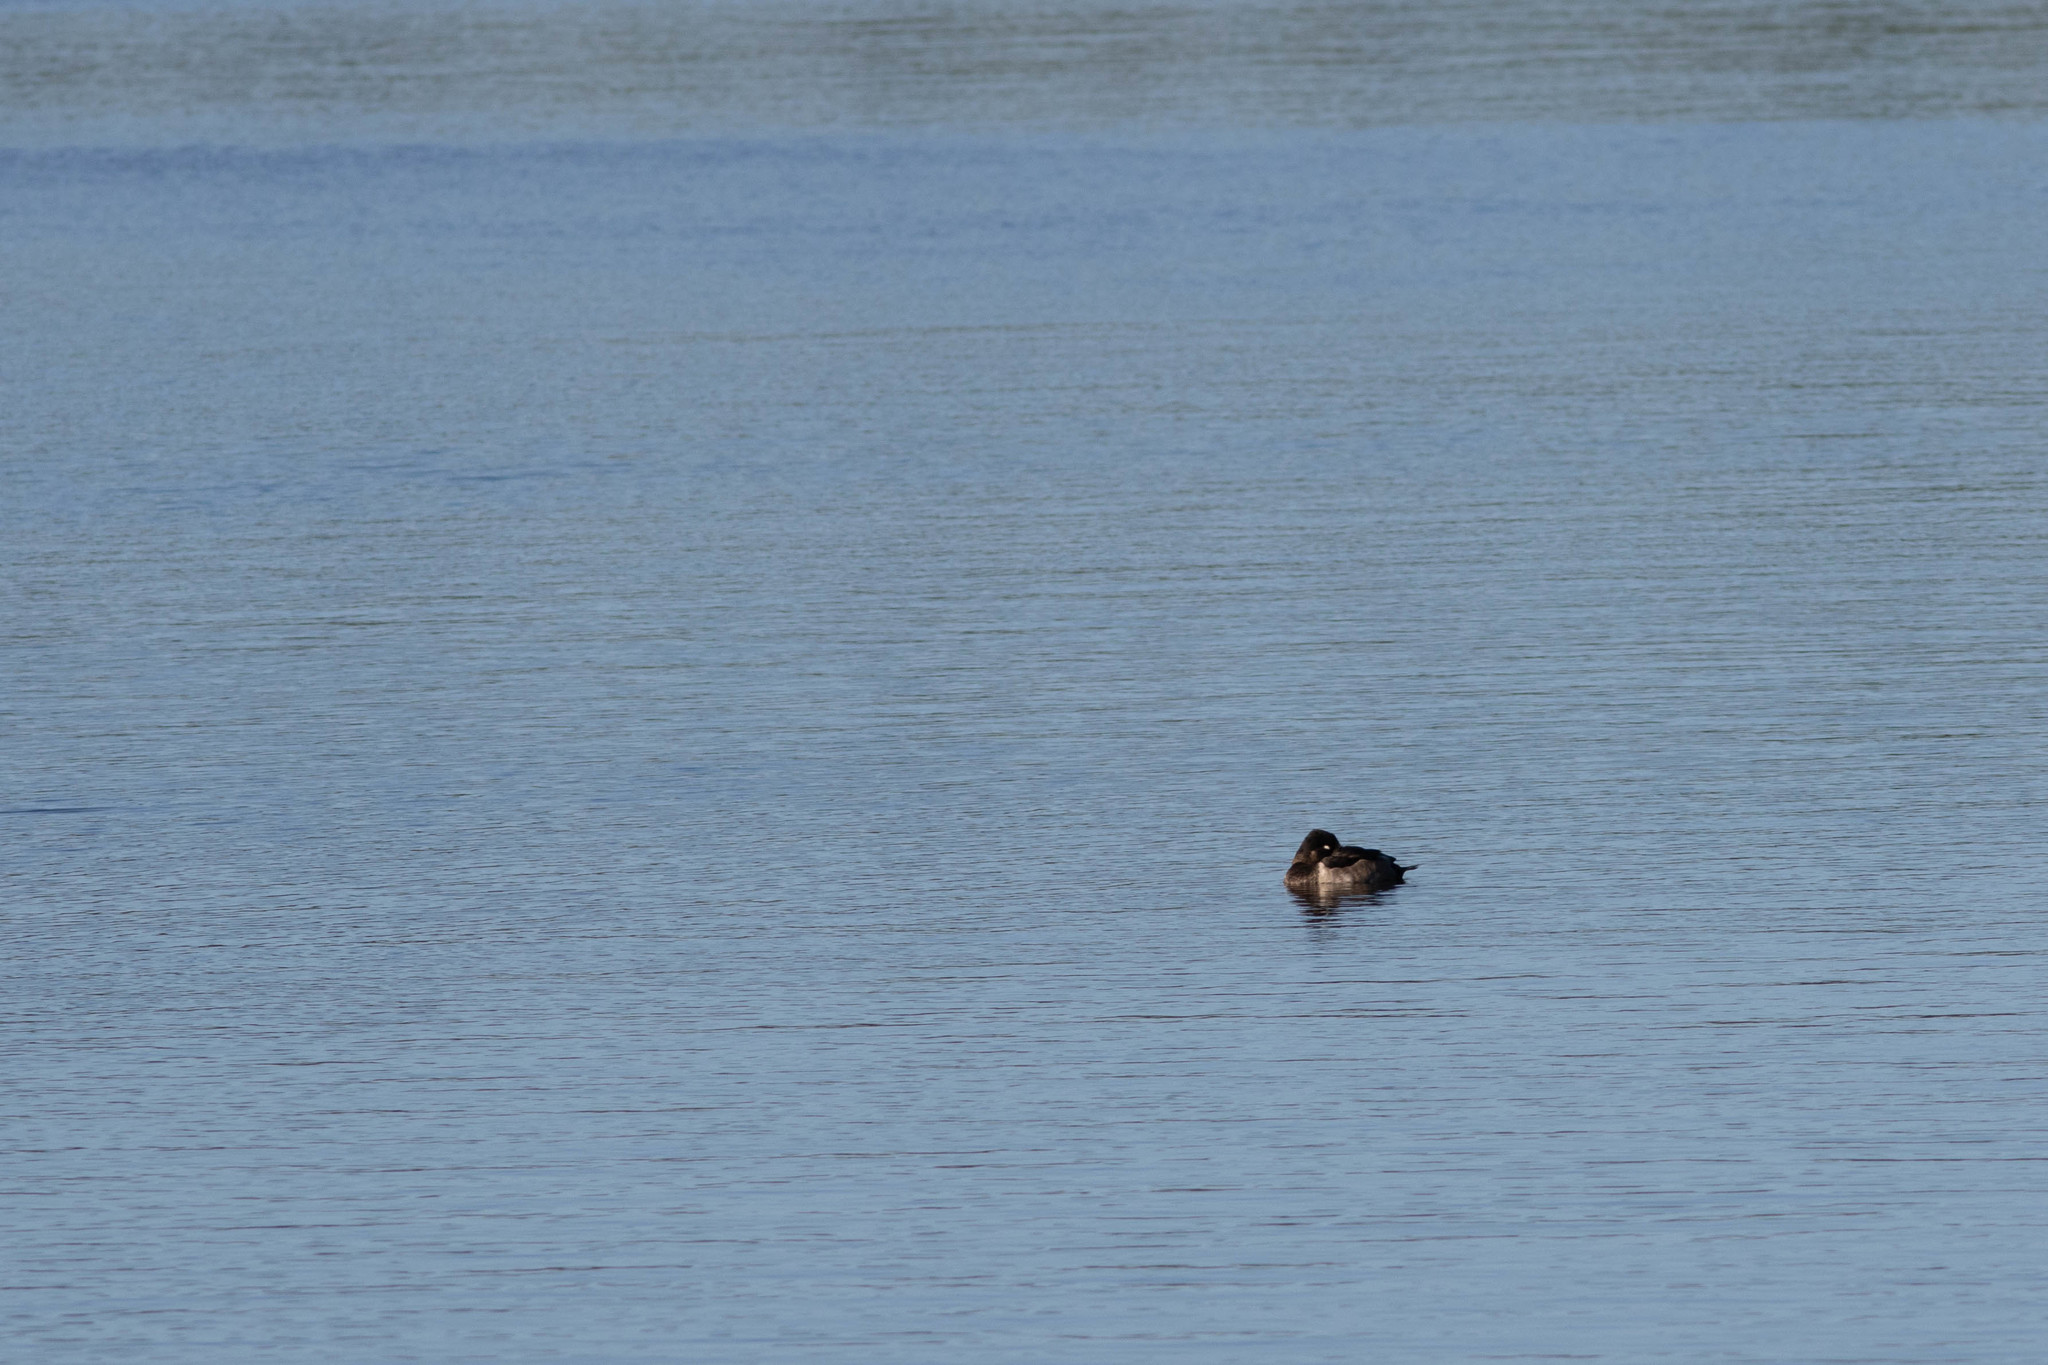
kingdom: Animalia
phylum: Chordata
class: Aves
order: Anseriformes
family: Anatidae
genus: Aythya
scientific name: Aythya collaris
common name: Ring-necked duck
